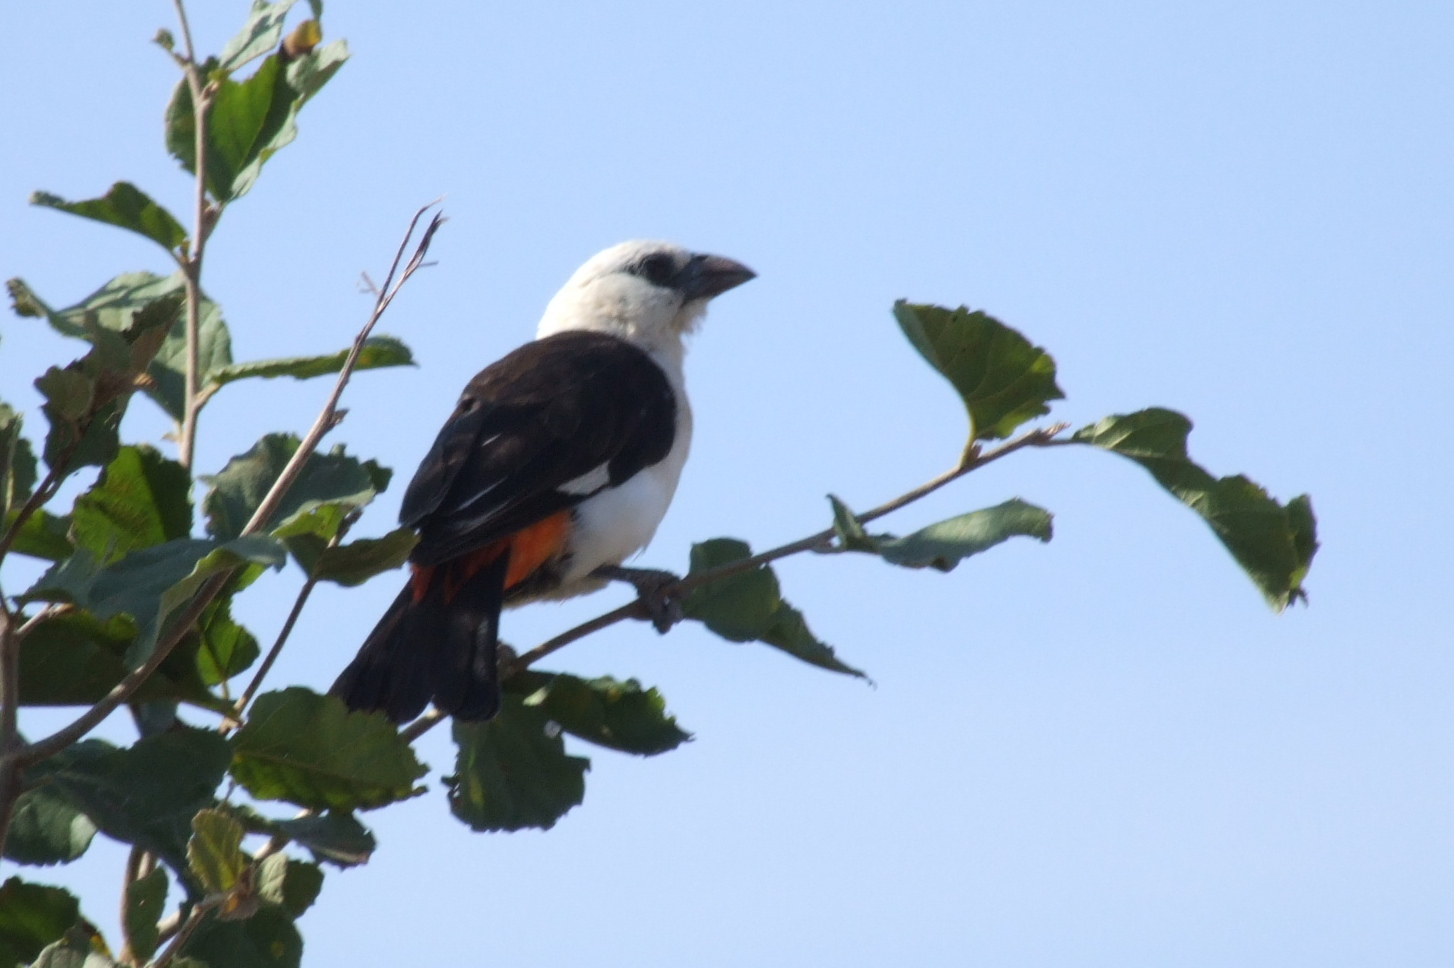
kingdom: Animalia
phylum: Chordata
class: Aves
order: Passeriformes
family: Ploceidae
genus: Dinemellia
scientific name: Dinemellia dinemelli
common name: White-headed buffalo weaver
